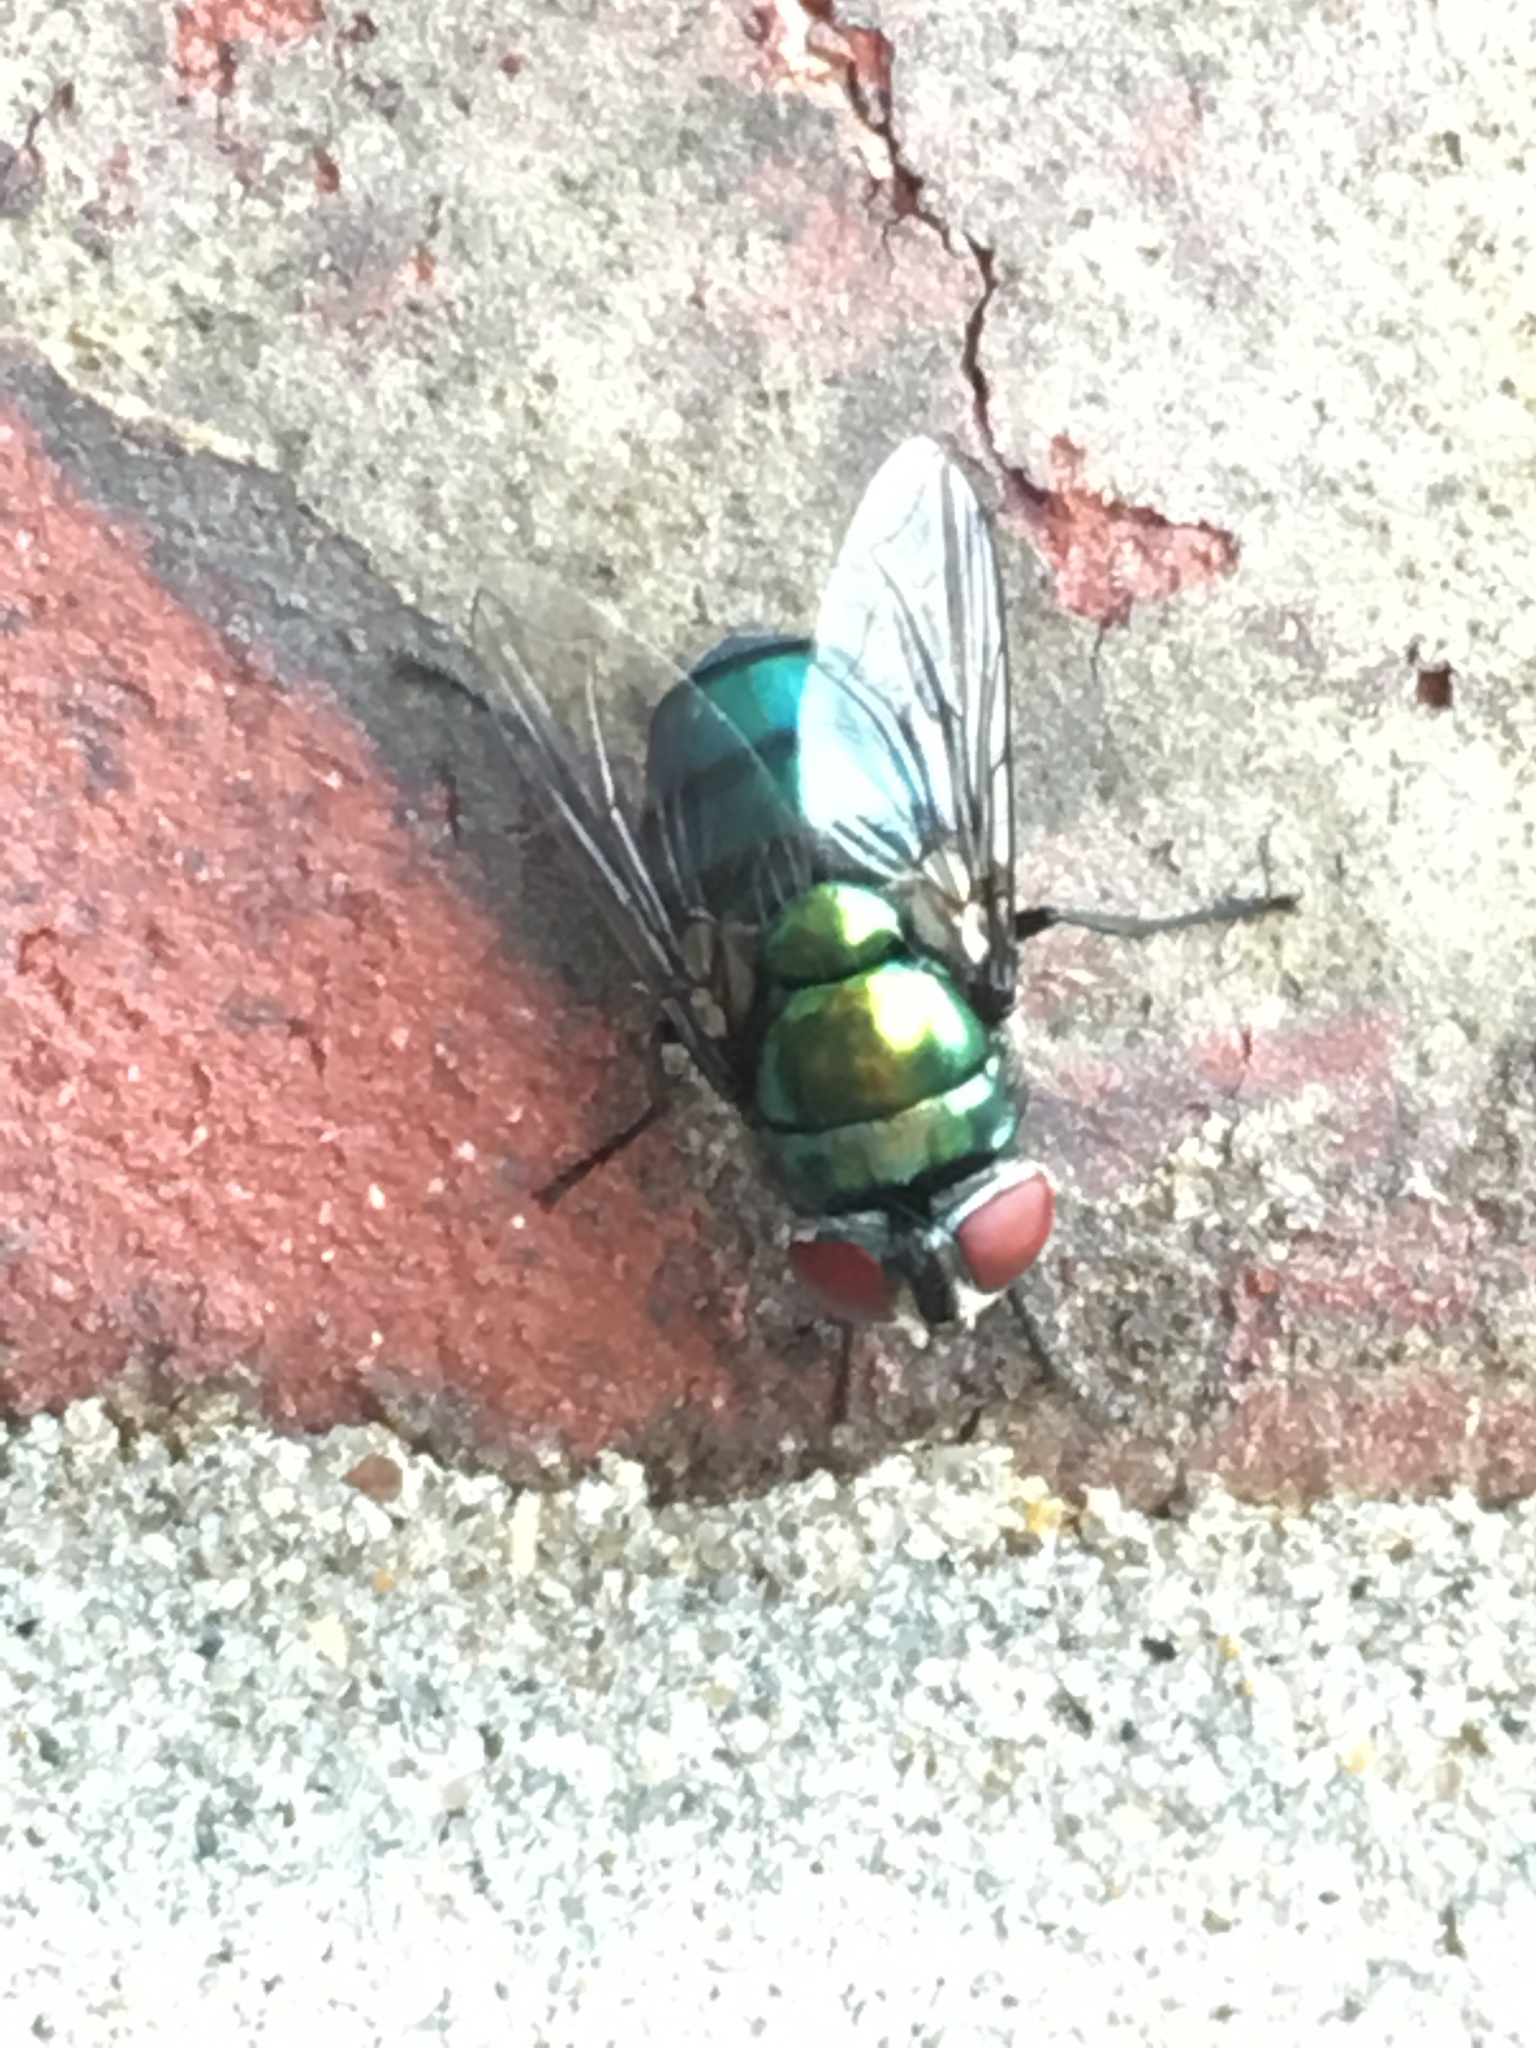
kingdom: Animalia
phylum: Arthropoda
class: Insecta
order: Diptera
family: Calliphoridae
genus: Chrysomya
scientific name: Chrysomya rufifacies
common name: Blow fly
